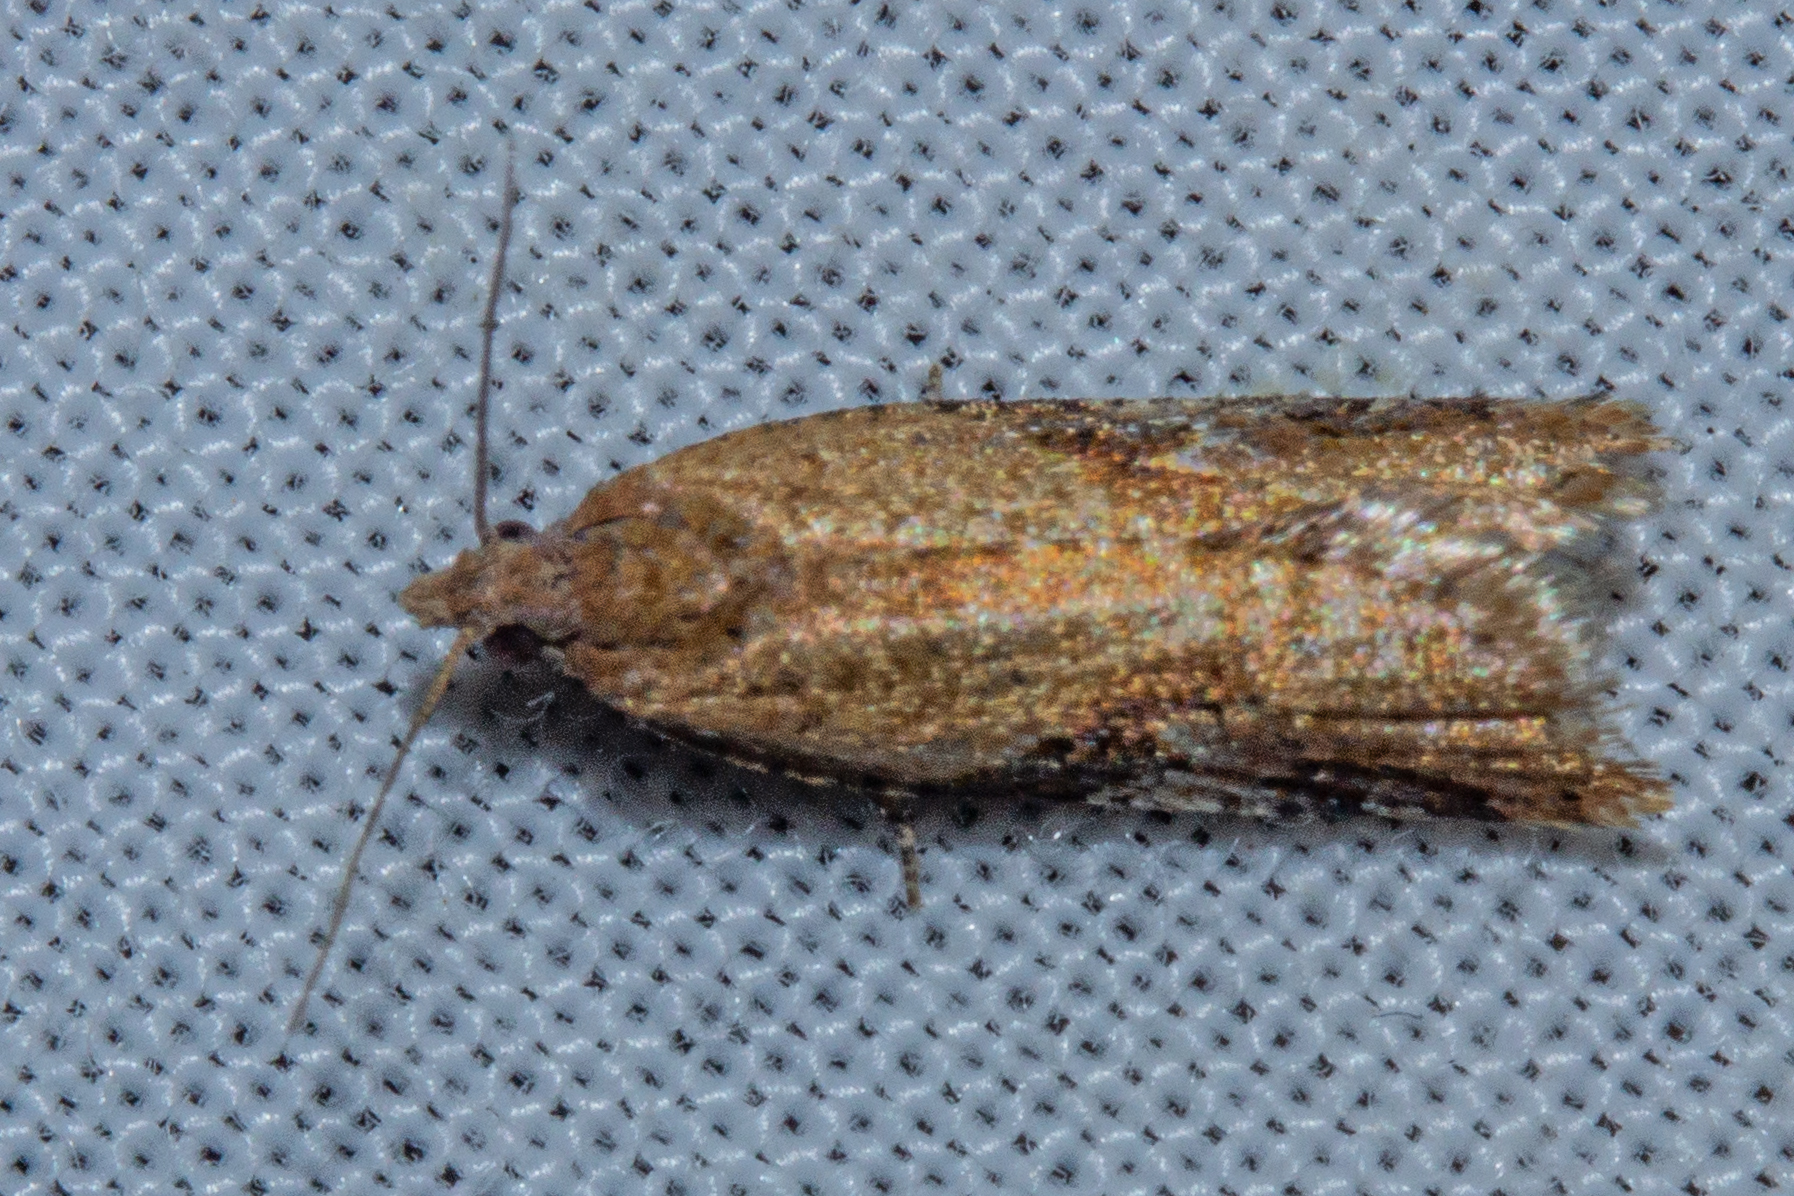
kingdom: Animalia
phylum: Arthropoda
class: Insecta
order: Lepidoptera
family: Tortricidae
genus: Capua
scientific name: Capua semiferana
